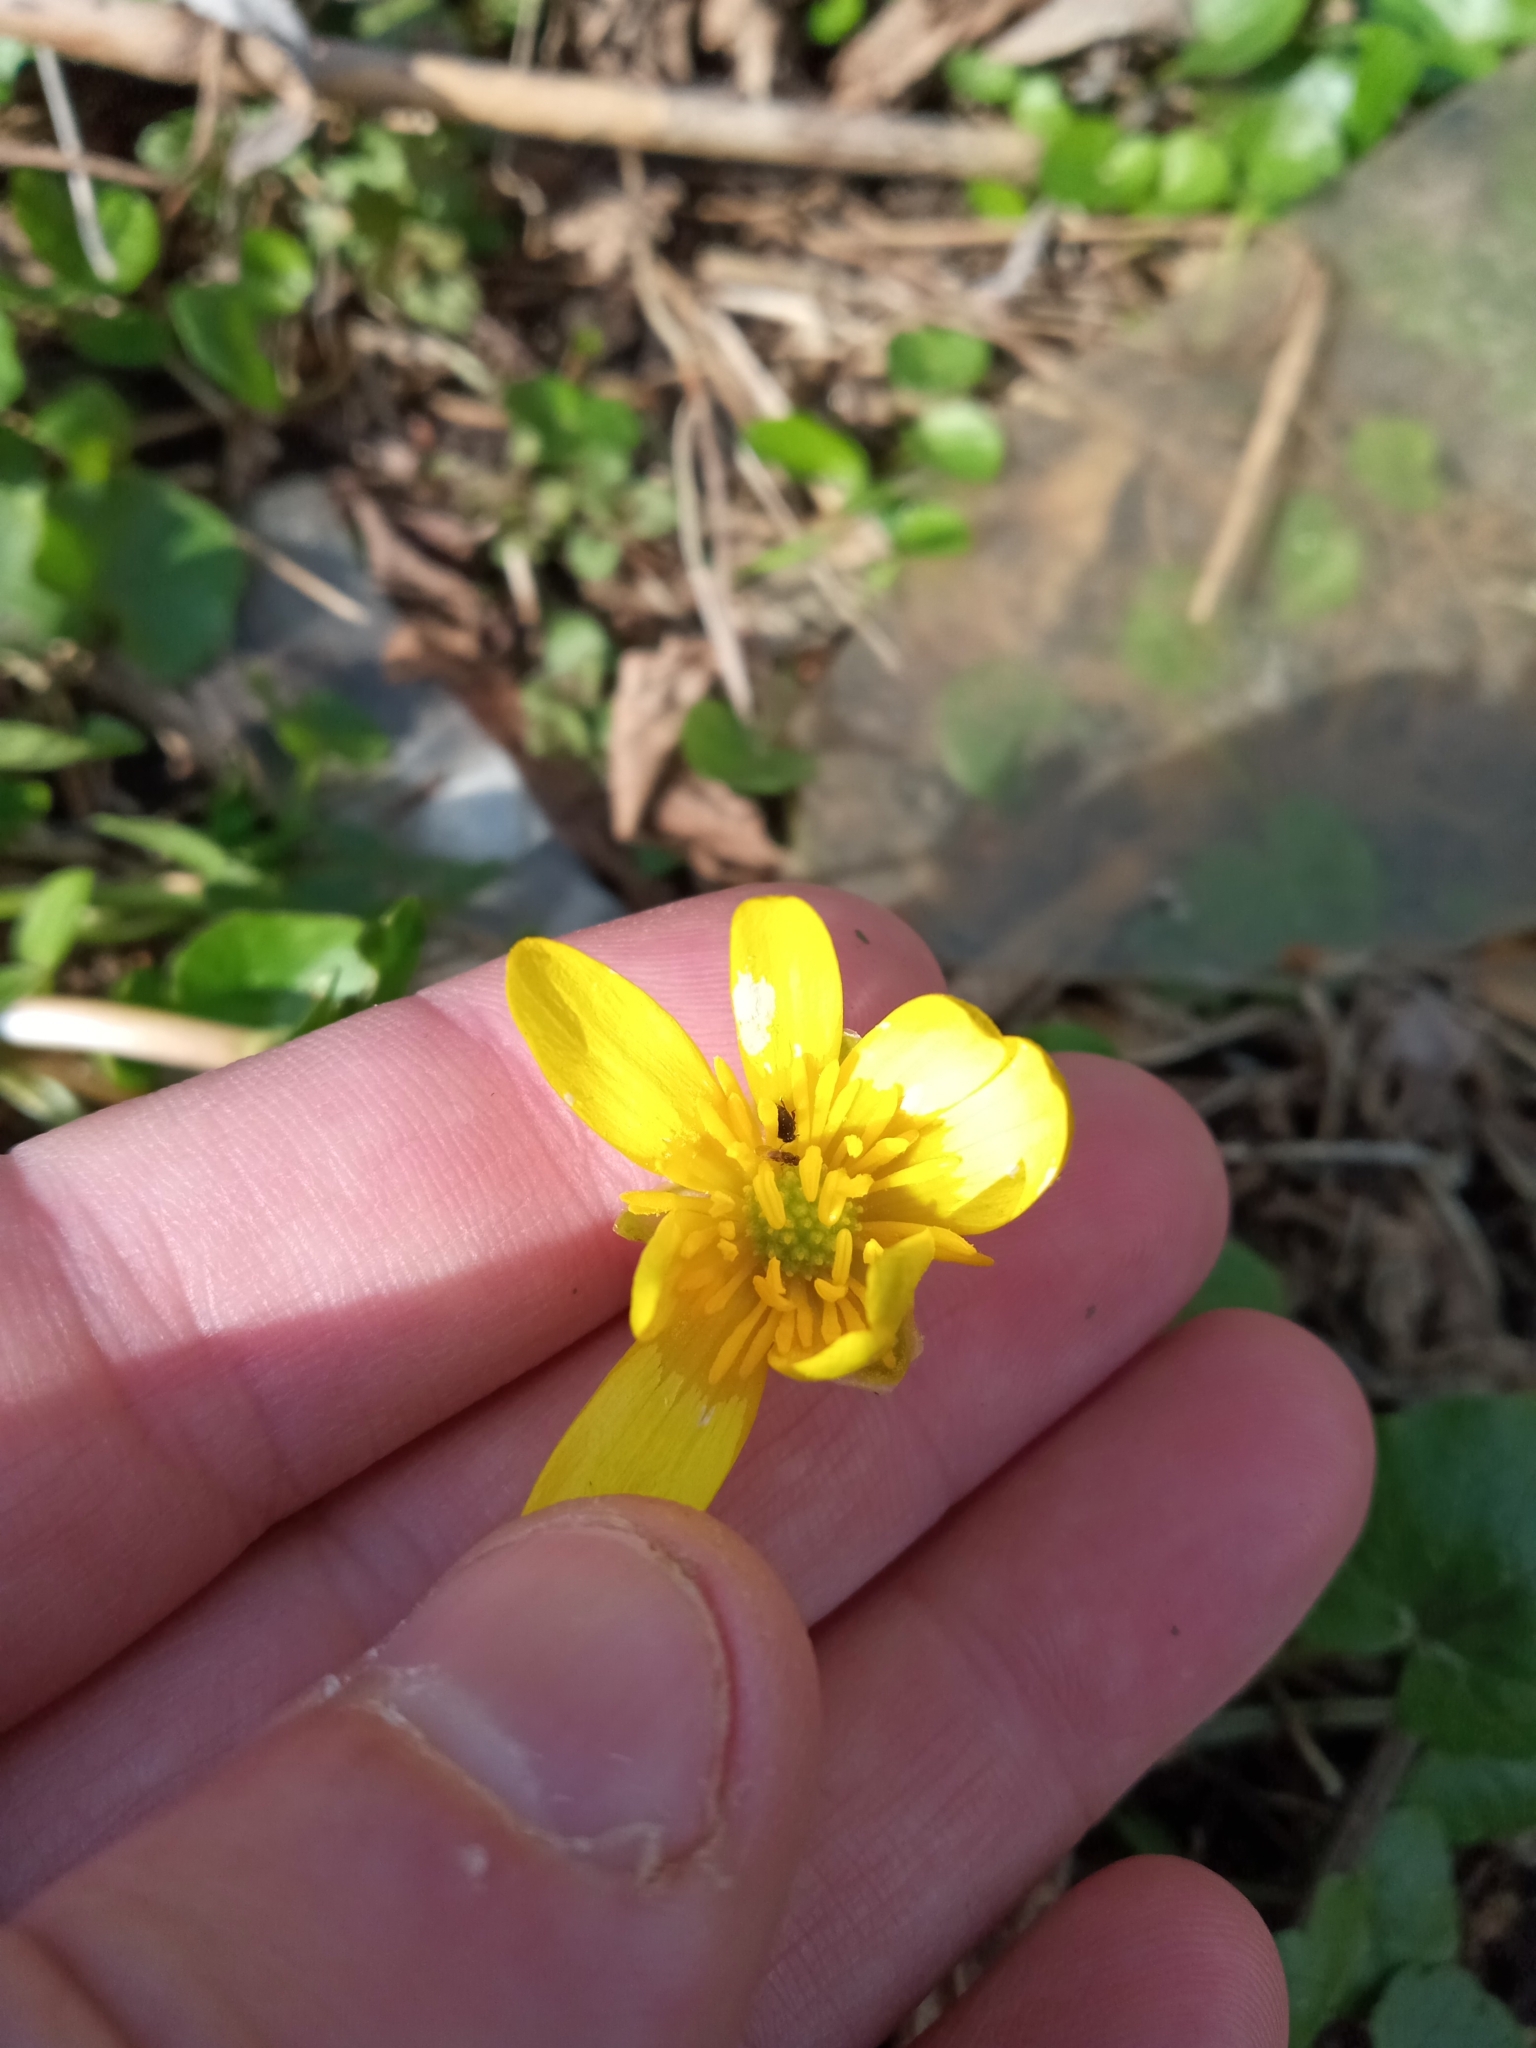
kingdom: Plantae
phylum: Tracheophyta
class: Magnoliopsida
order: Ranunculales
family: Ranunculaceae
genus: Ficaria
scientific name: Ficaria verna
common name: Lesser celandine
